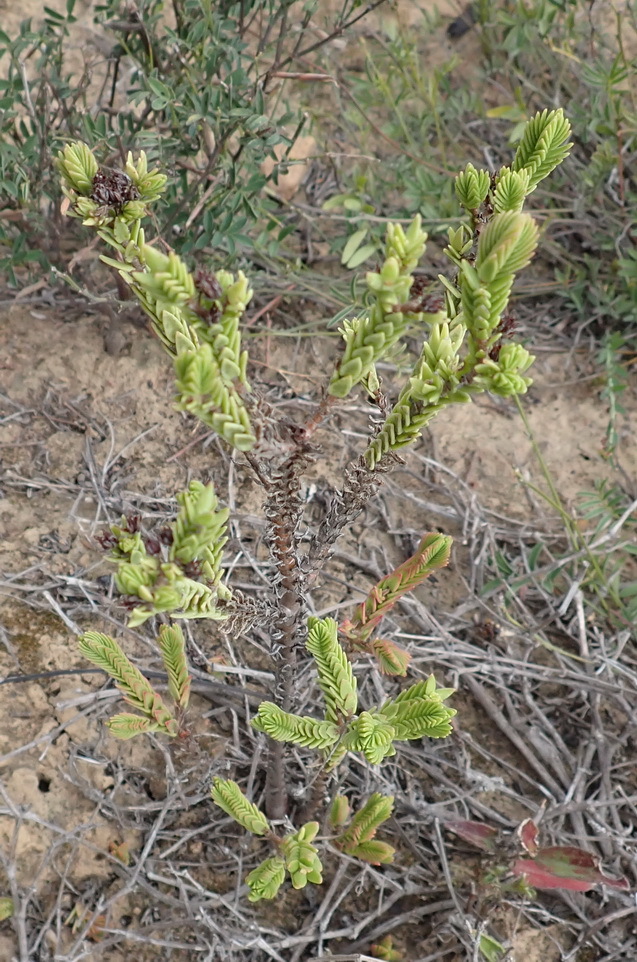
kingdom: Plantae
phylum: Tracheophyta
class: Magnoliopsida
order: Saxifragales
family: Crassulaceae
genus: Crassula
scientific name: Crassula ericoides
